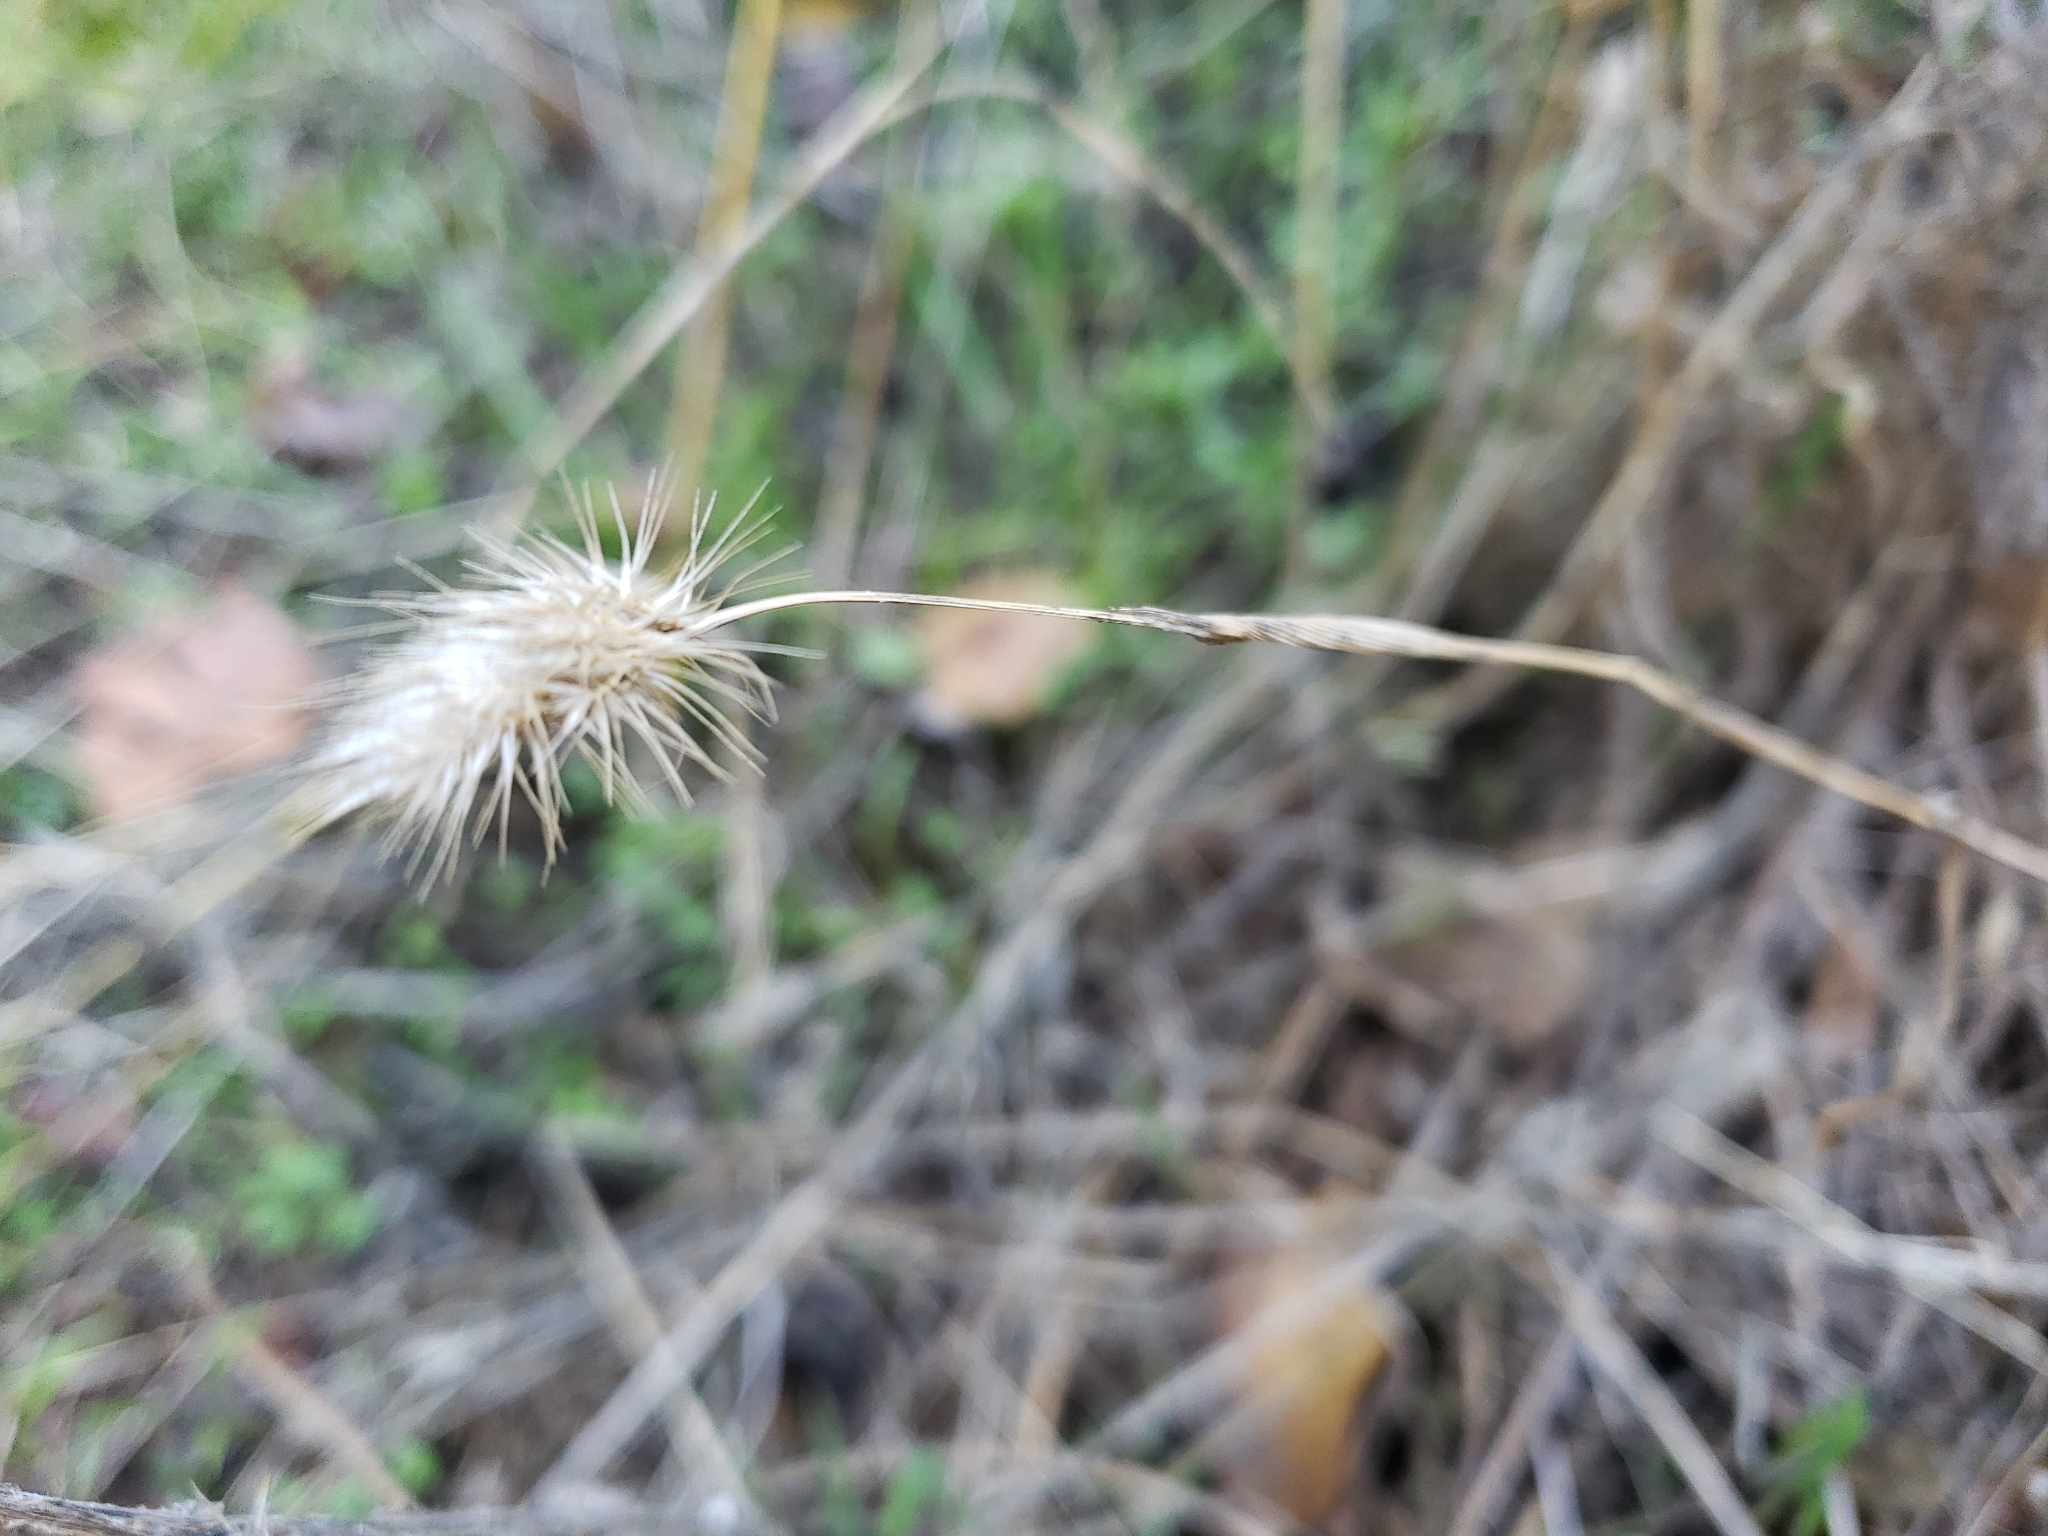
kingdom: Plantae
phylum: Tracheophyta
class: Liliopsida
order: Poales
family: Poaceae
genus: Cynosurus
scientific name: Cynosurus echinatus
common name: Rough dog's-tail
